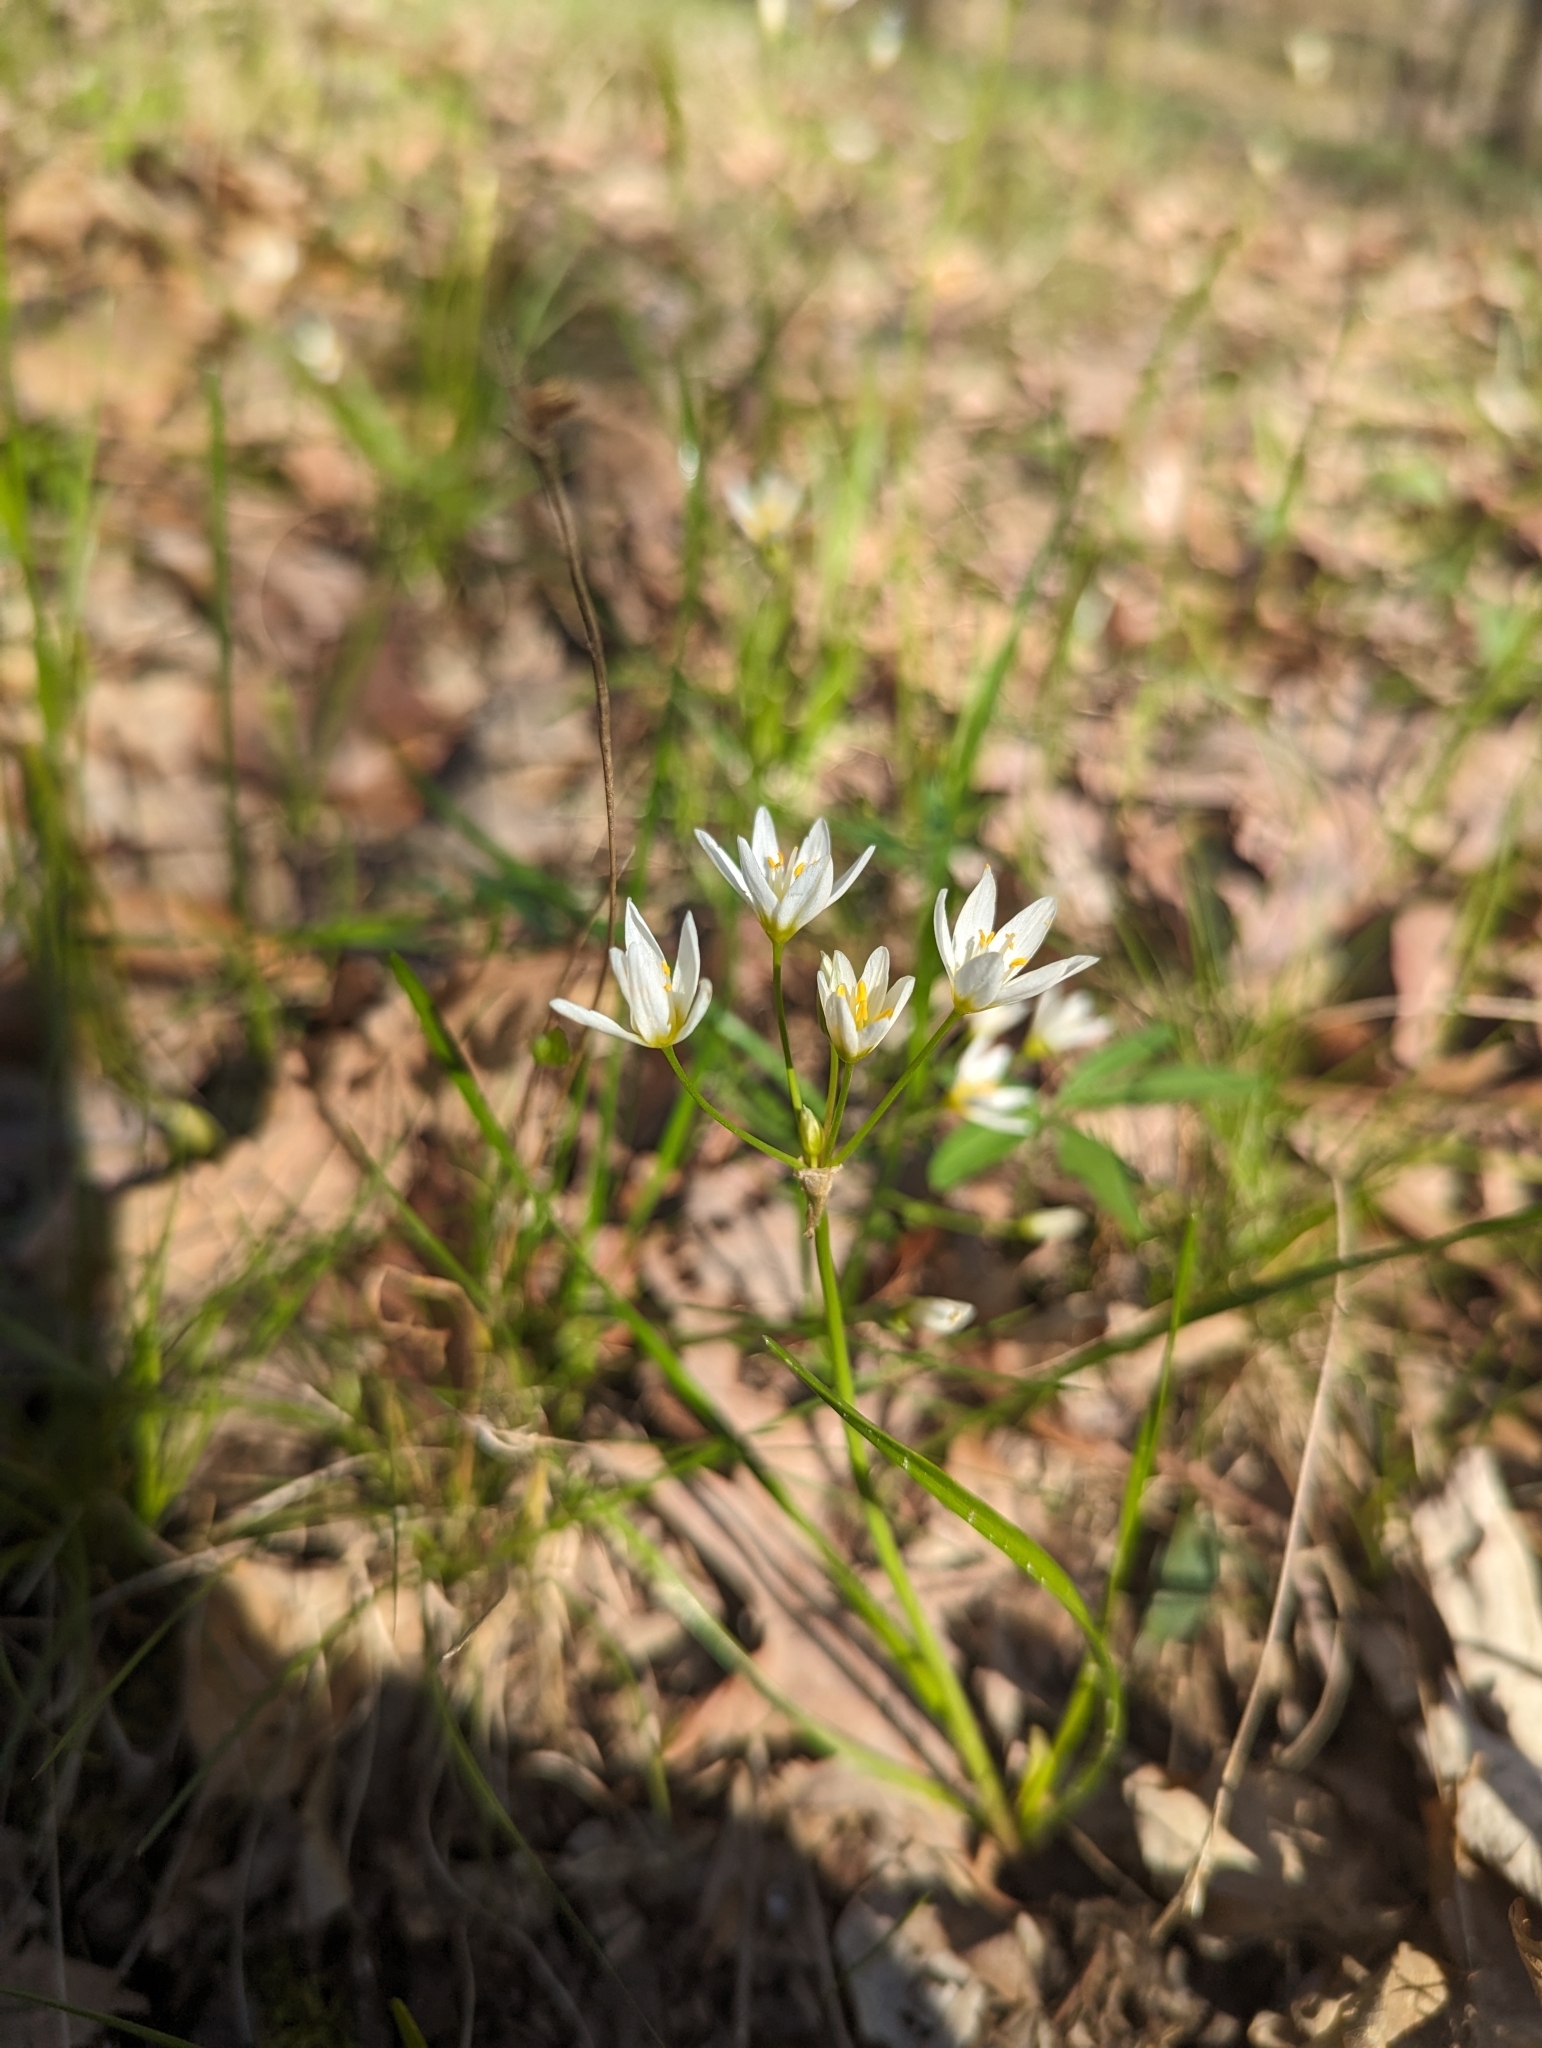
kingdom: Plantae
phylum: Tracheophyta
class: Liliopsida
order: Asparagales
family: Amaryllidaceae
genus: Nothoscordum
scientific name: Nothoscordum bivalve
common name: Crow-poison
